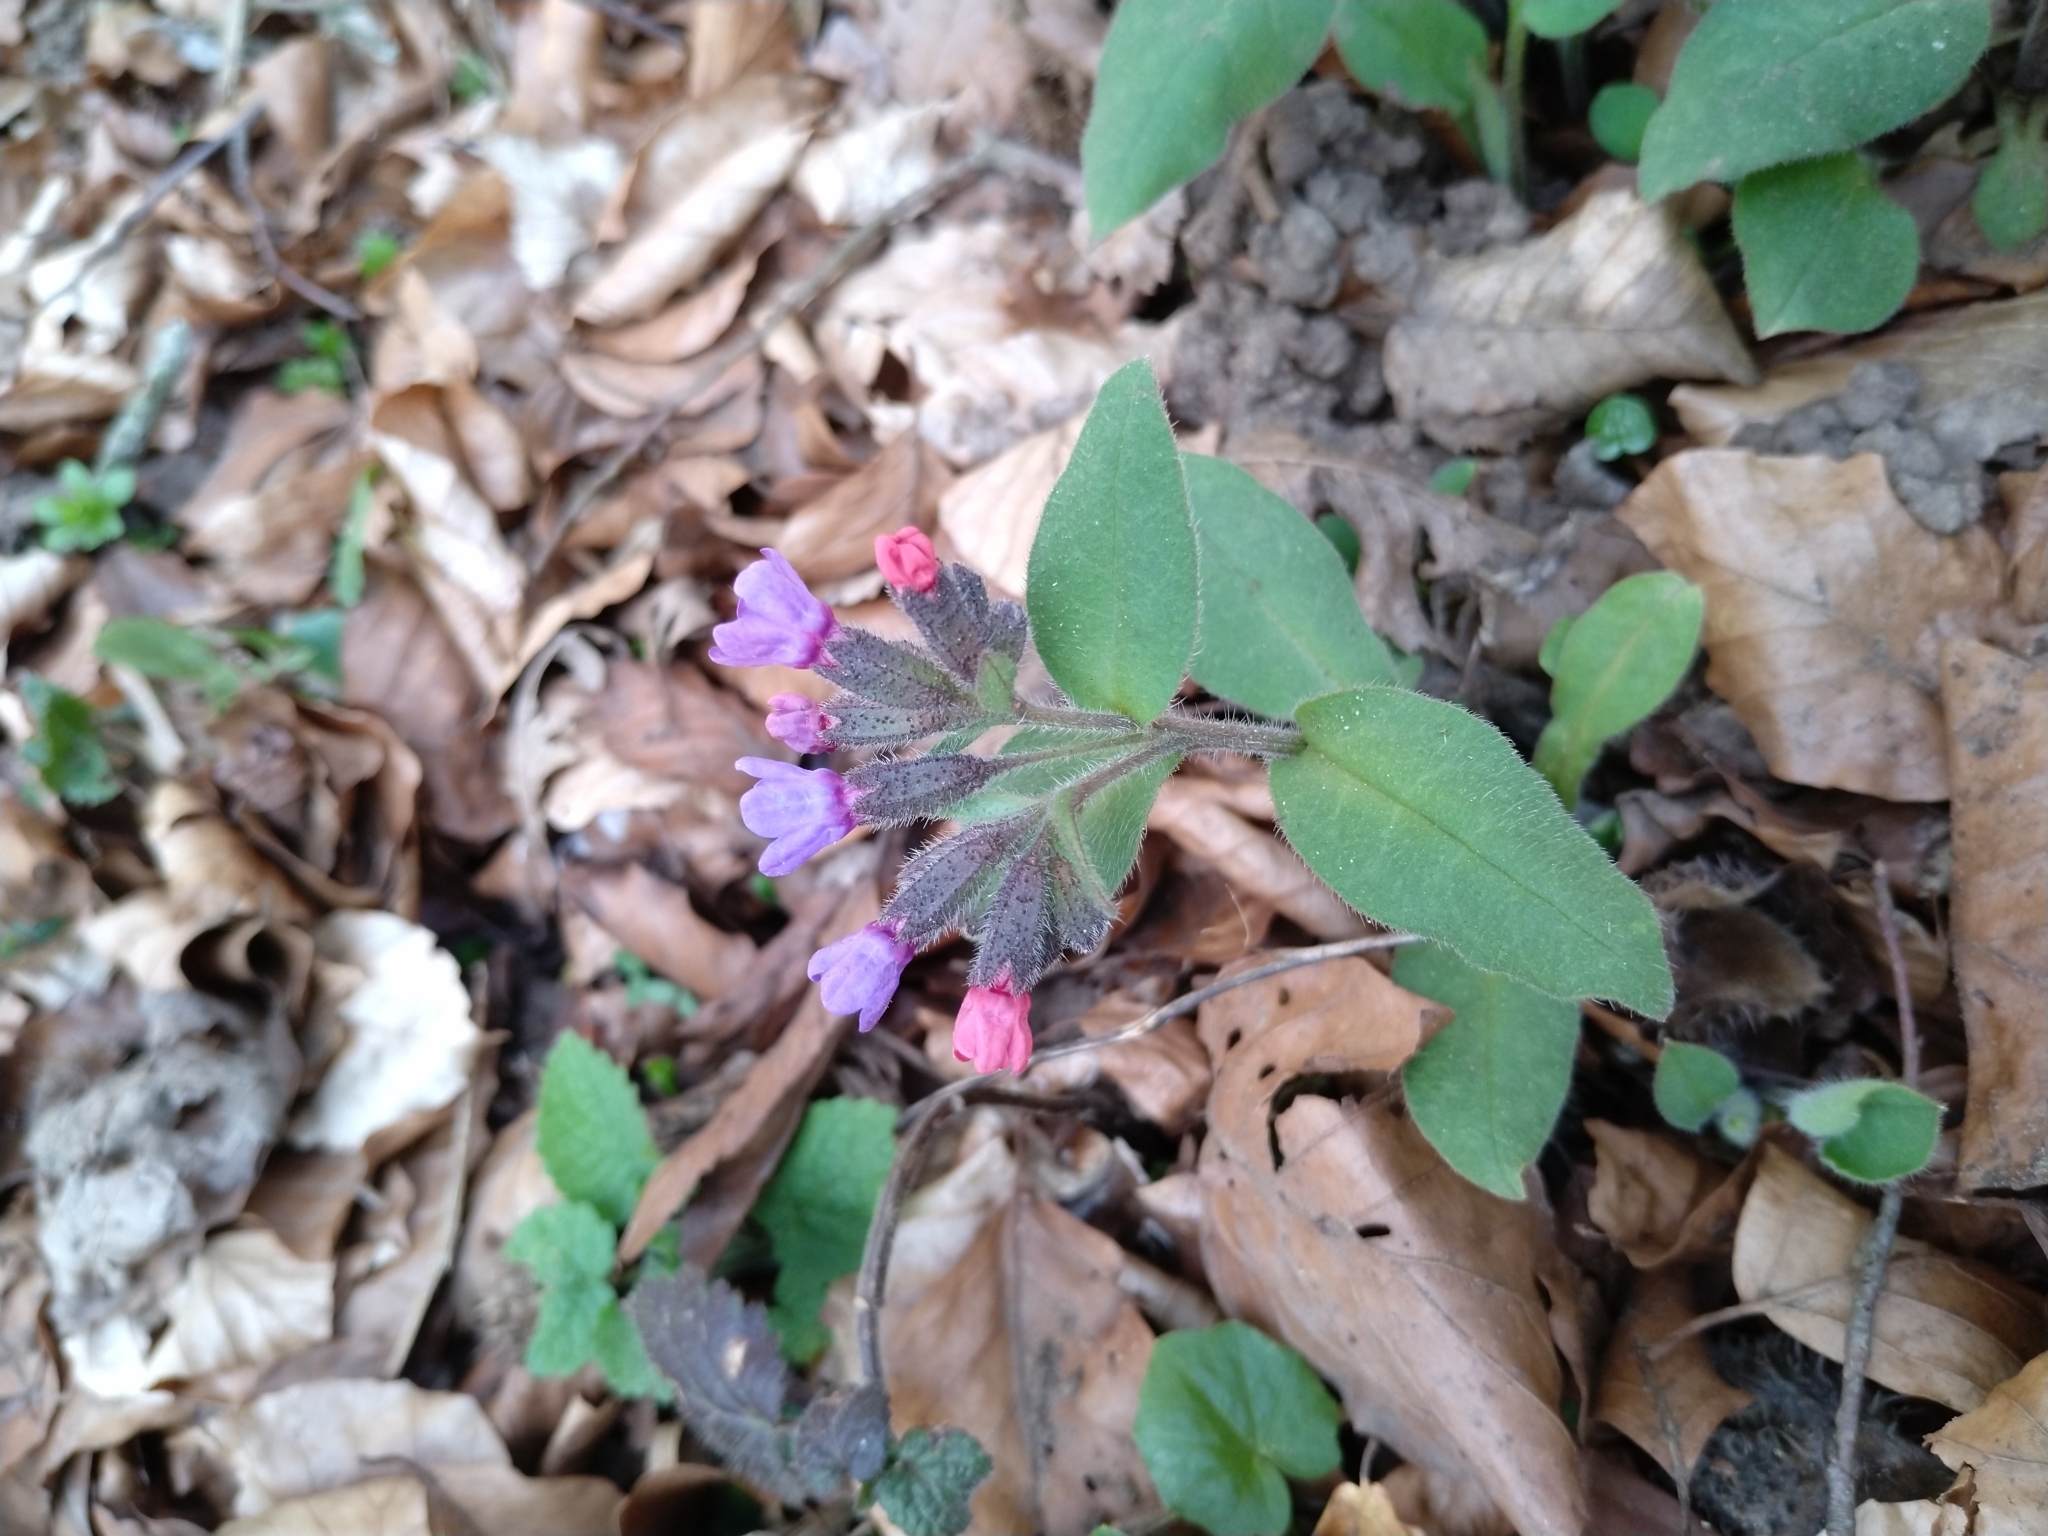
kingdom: Plantae
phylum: Tracheophyta
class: Magnoliopsida
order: Boraginales
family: Boraginaceae
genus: Pulmonaria
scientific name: Pulmonaria obscura
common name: Suffolk lungwort
